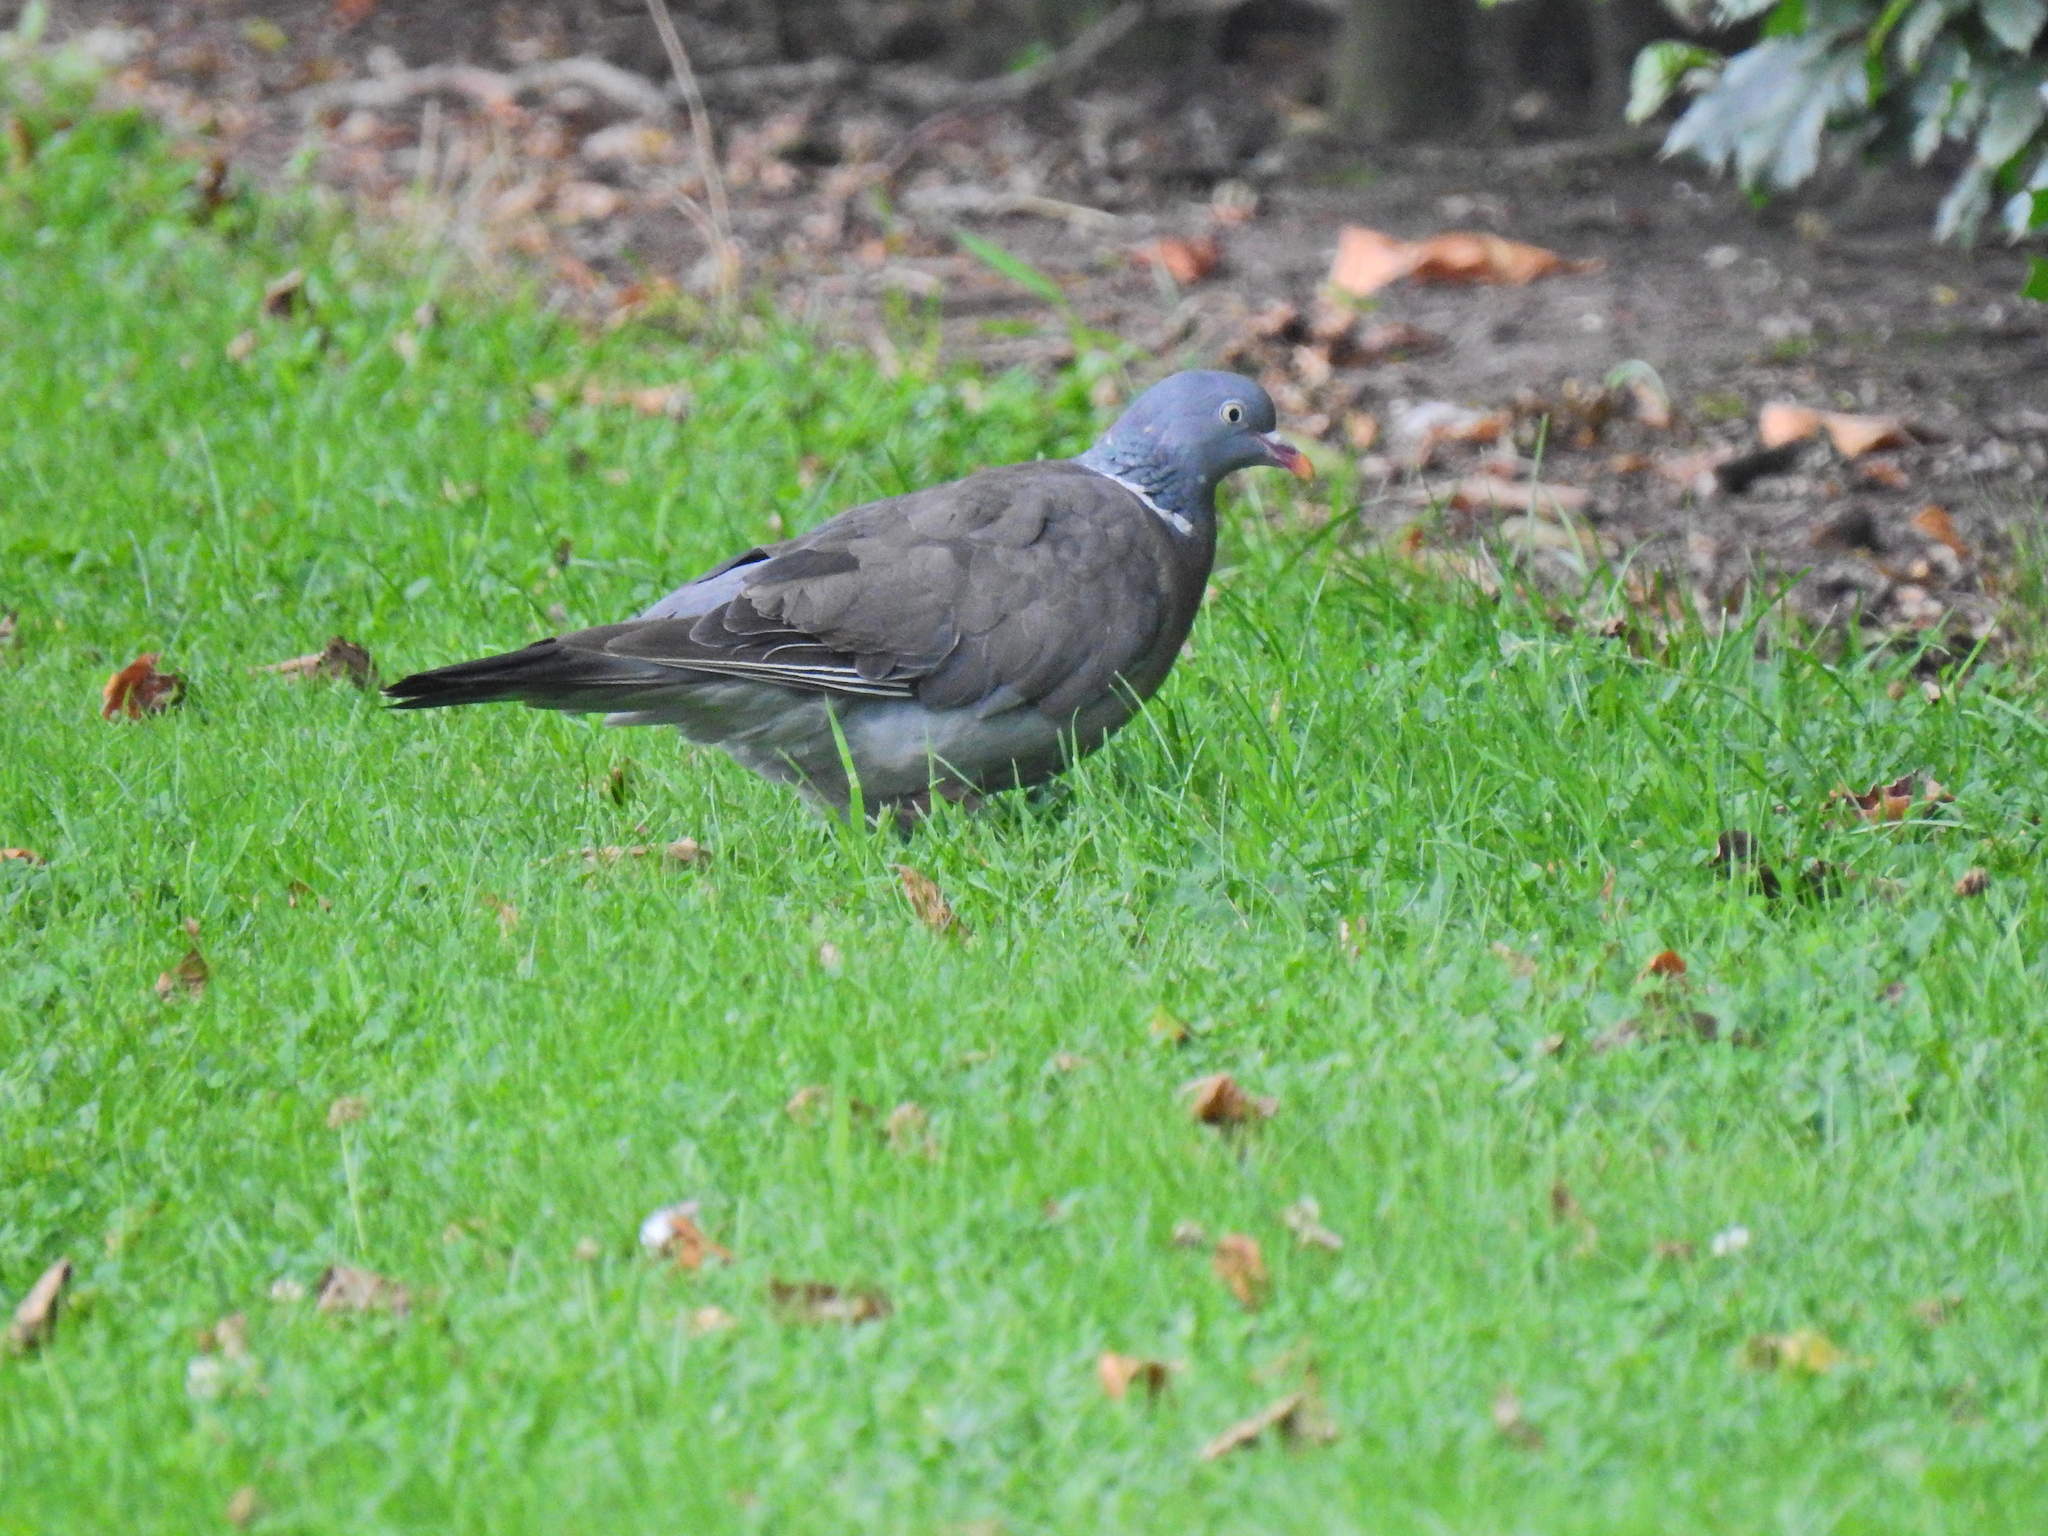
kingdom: Animalia
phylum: Chordata
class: Aves
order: Columbiformes
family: Columbidae
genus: Columba
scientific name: Columba palumbus
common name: Common wood pigeon
